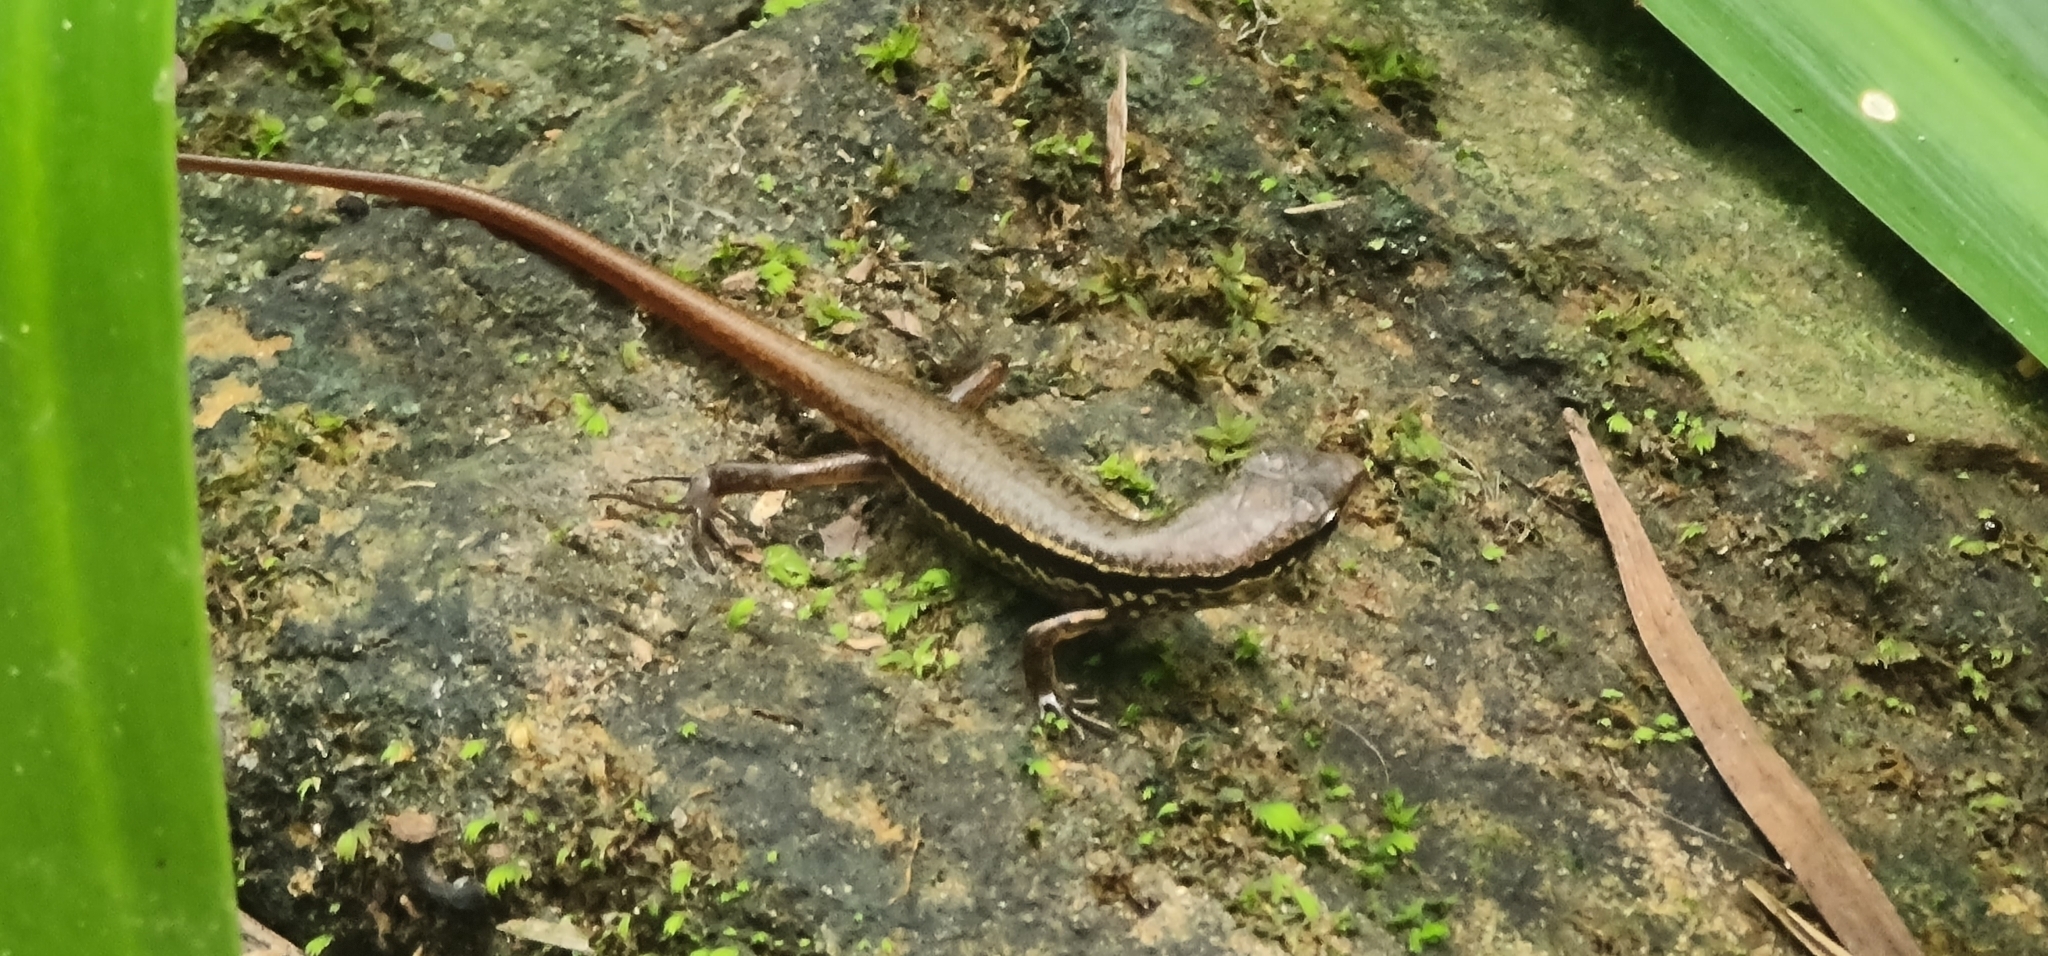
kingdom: Animalia
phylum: Chordata
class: Squamata
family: Scincidae
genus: Sphenomorphus
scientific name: Sphenomorphus indicus
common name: Himalayan forest skink
